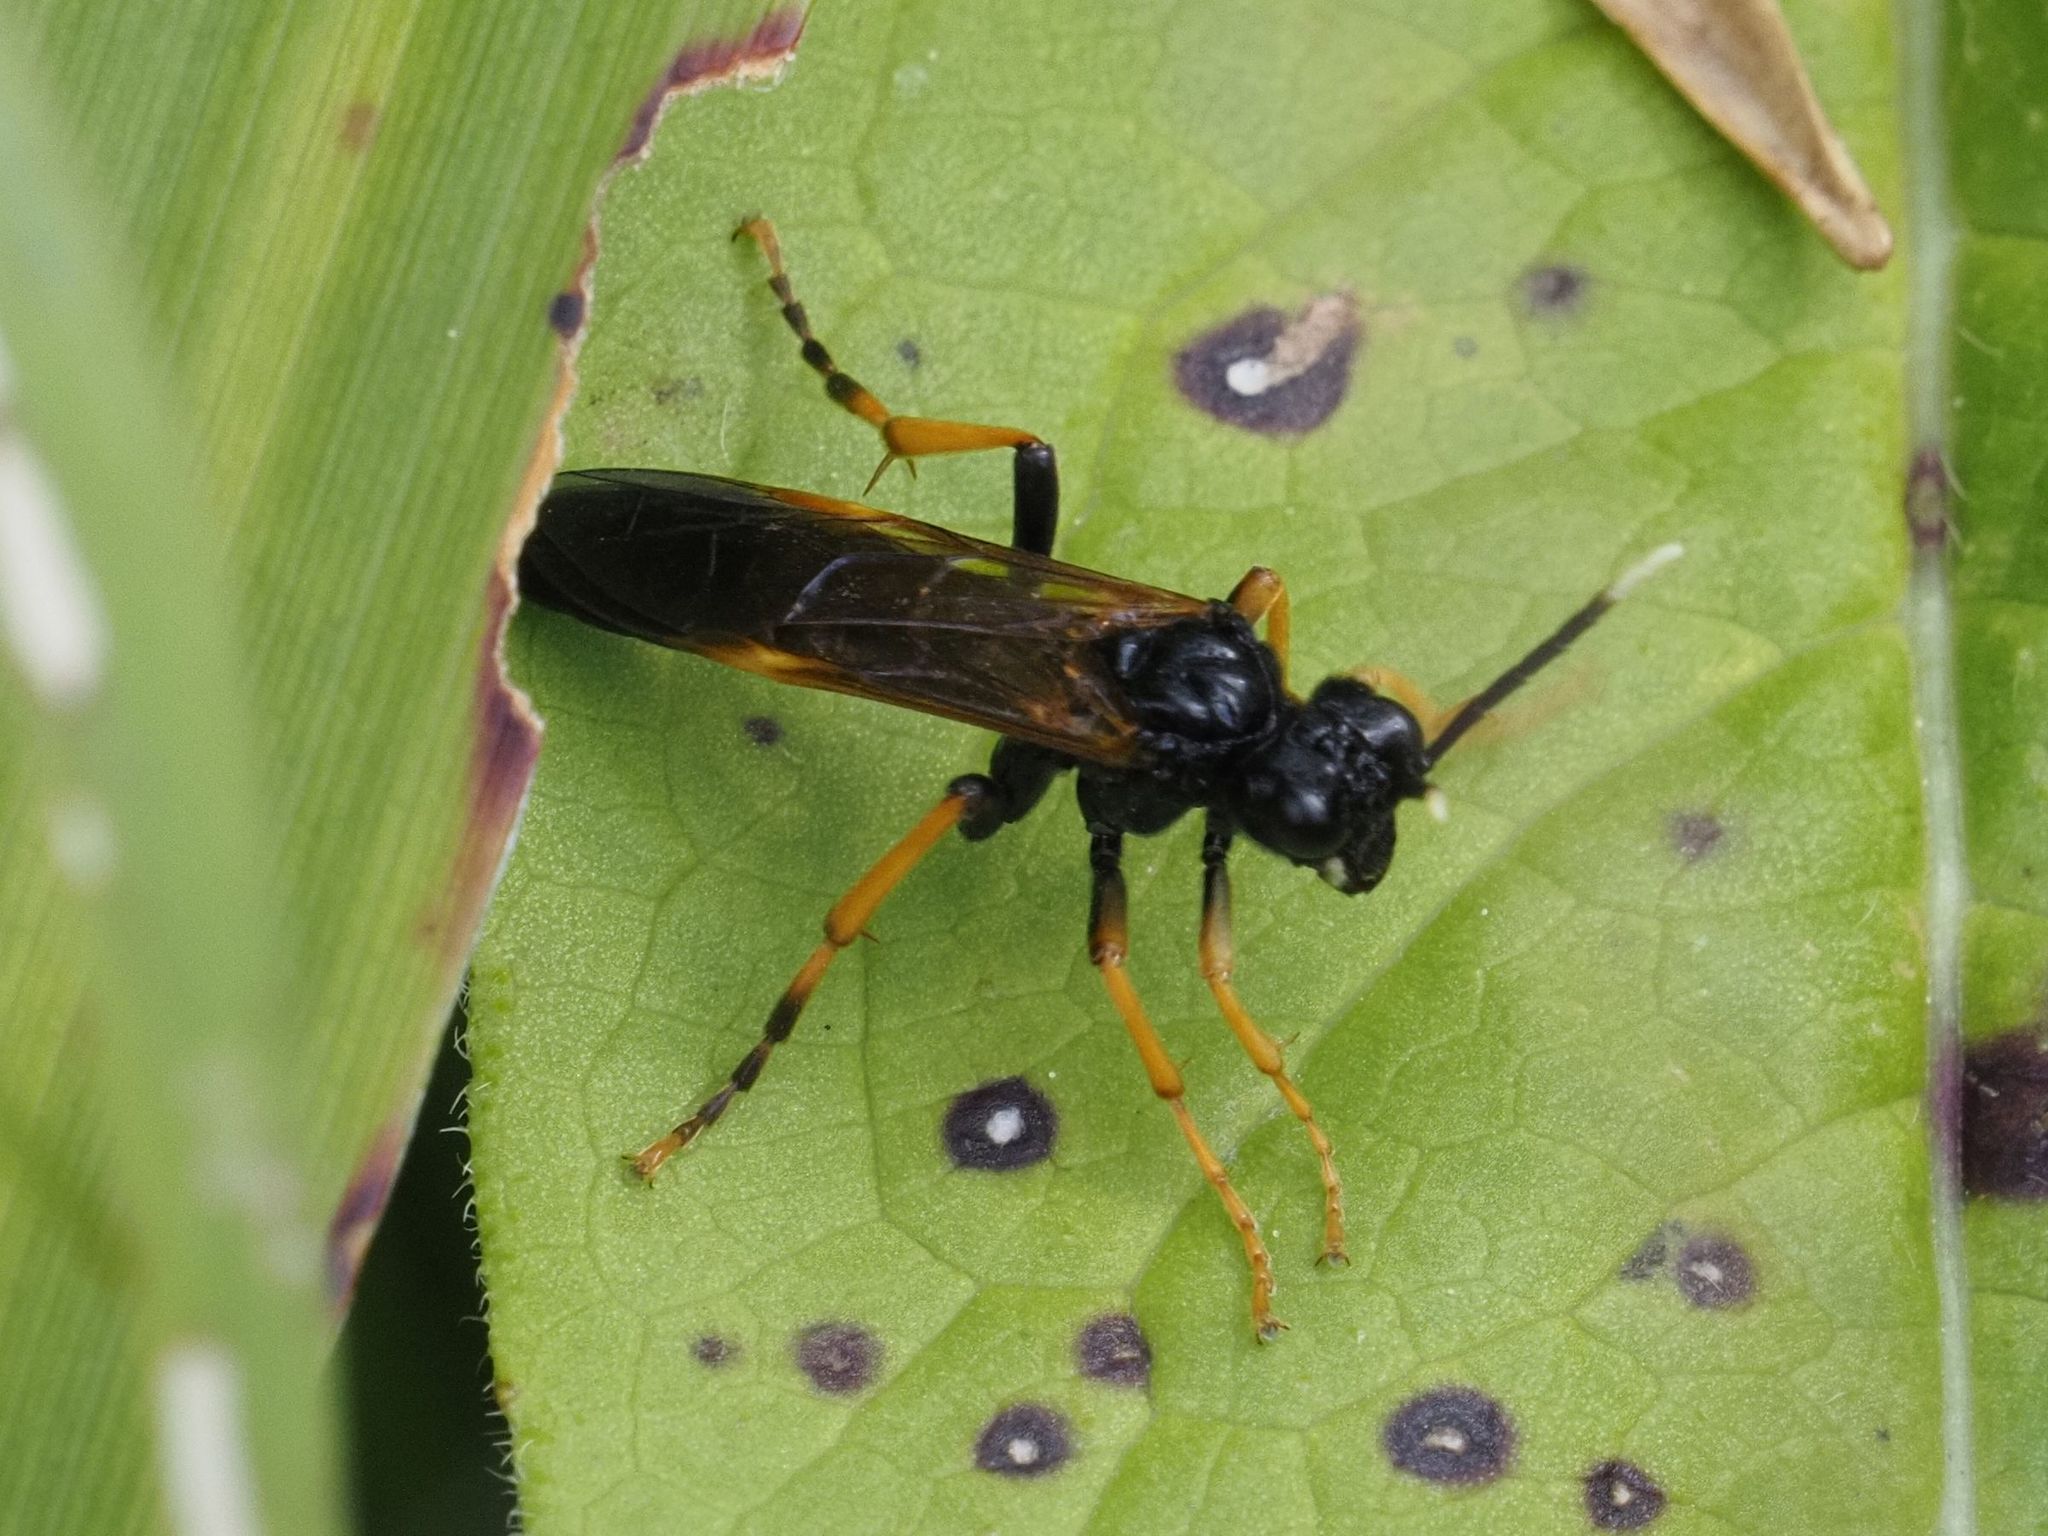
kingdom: Animalia
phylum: Arthropoda
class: Insecta
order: Hymenoptera
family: Tenthredinidae
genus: Tenthredo
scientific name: Tenthredo crassa
